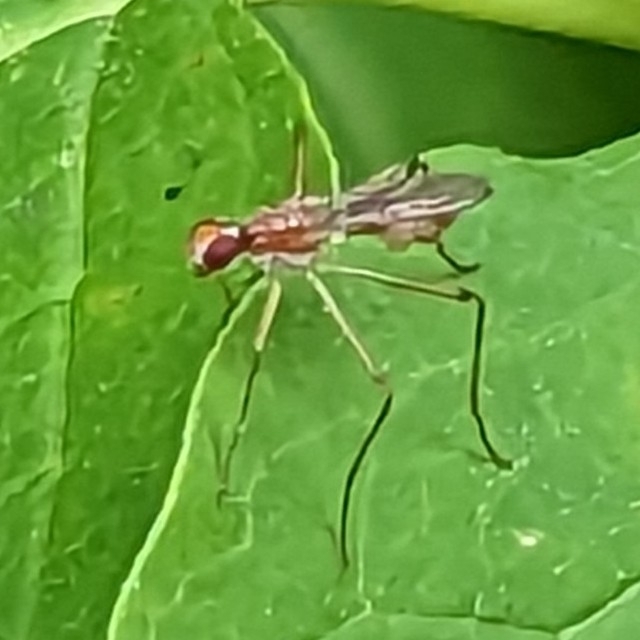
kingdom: Animalia
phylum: Arthropoda
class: Insecta
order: Diptera
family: Micropezidae
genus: Compsobata
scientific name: Compsobata univitta
